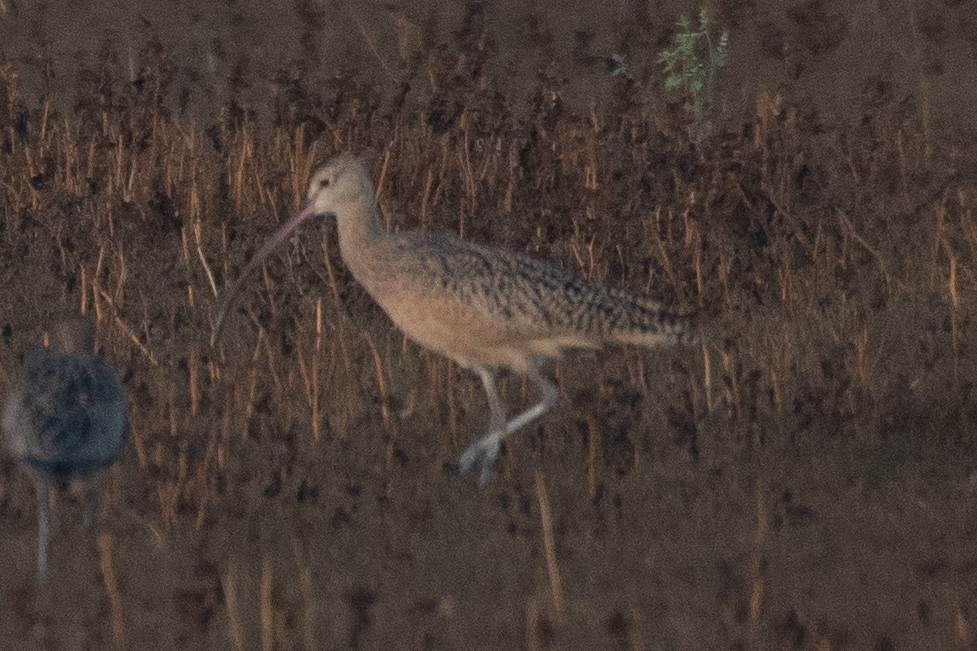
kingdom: Animalia
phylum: Chordata
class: Aves
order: Charadriiformes
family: Scolopacidae
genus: Numenius
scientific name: Numenius americanus
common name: Long-billed curlew
